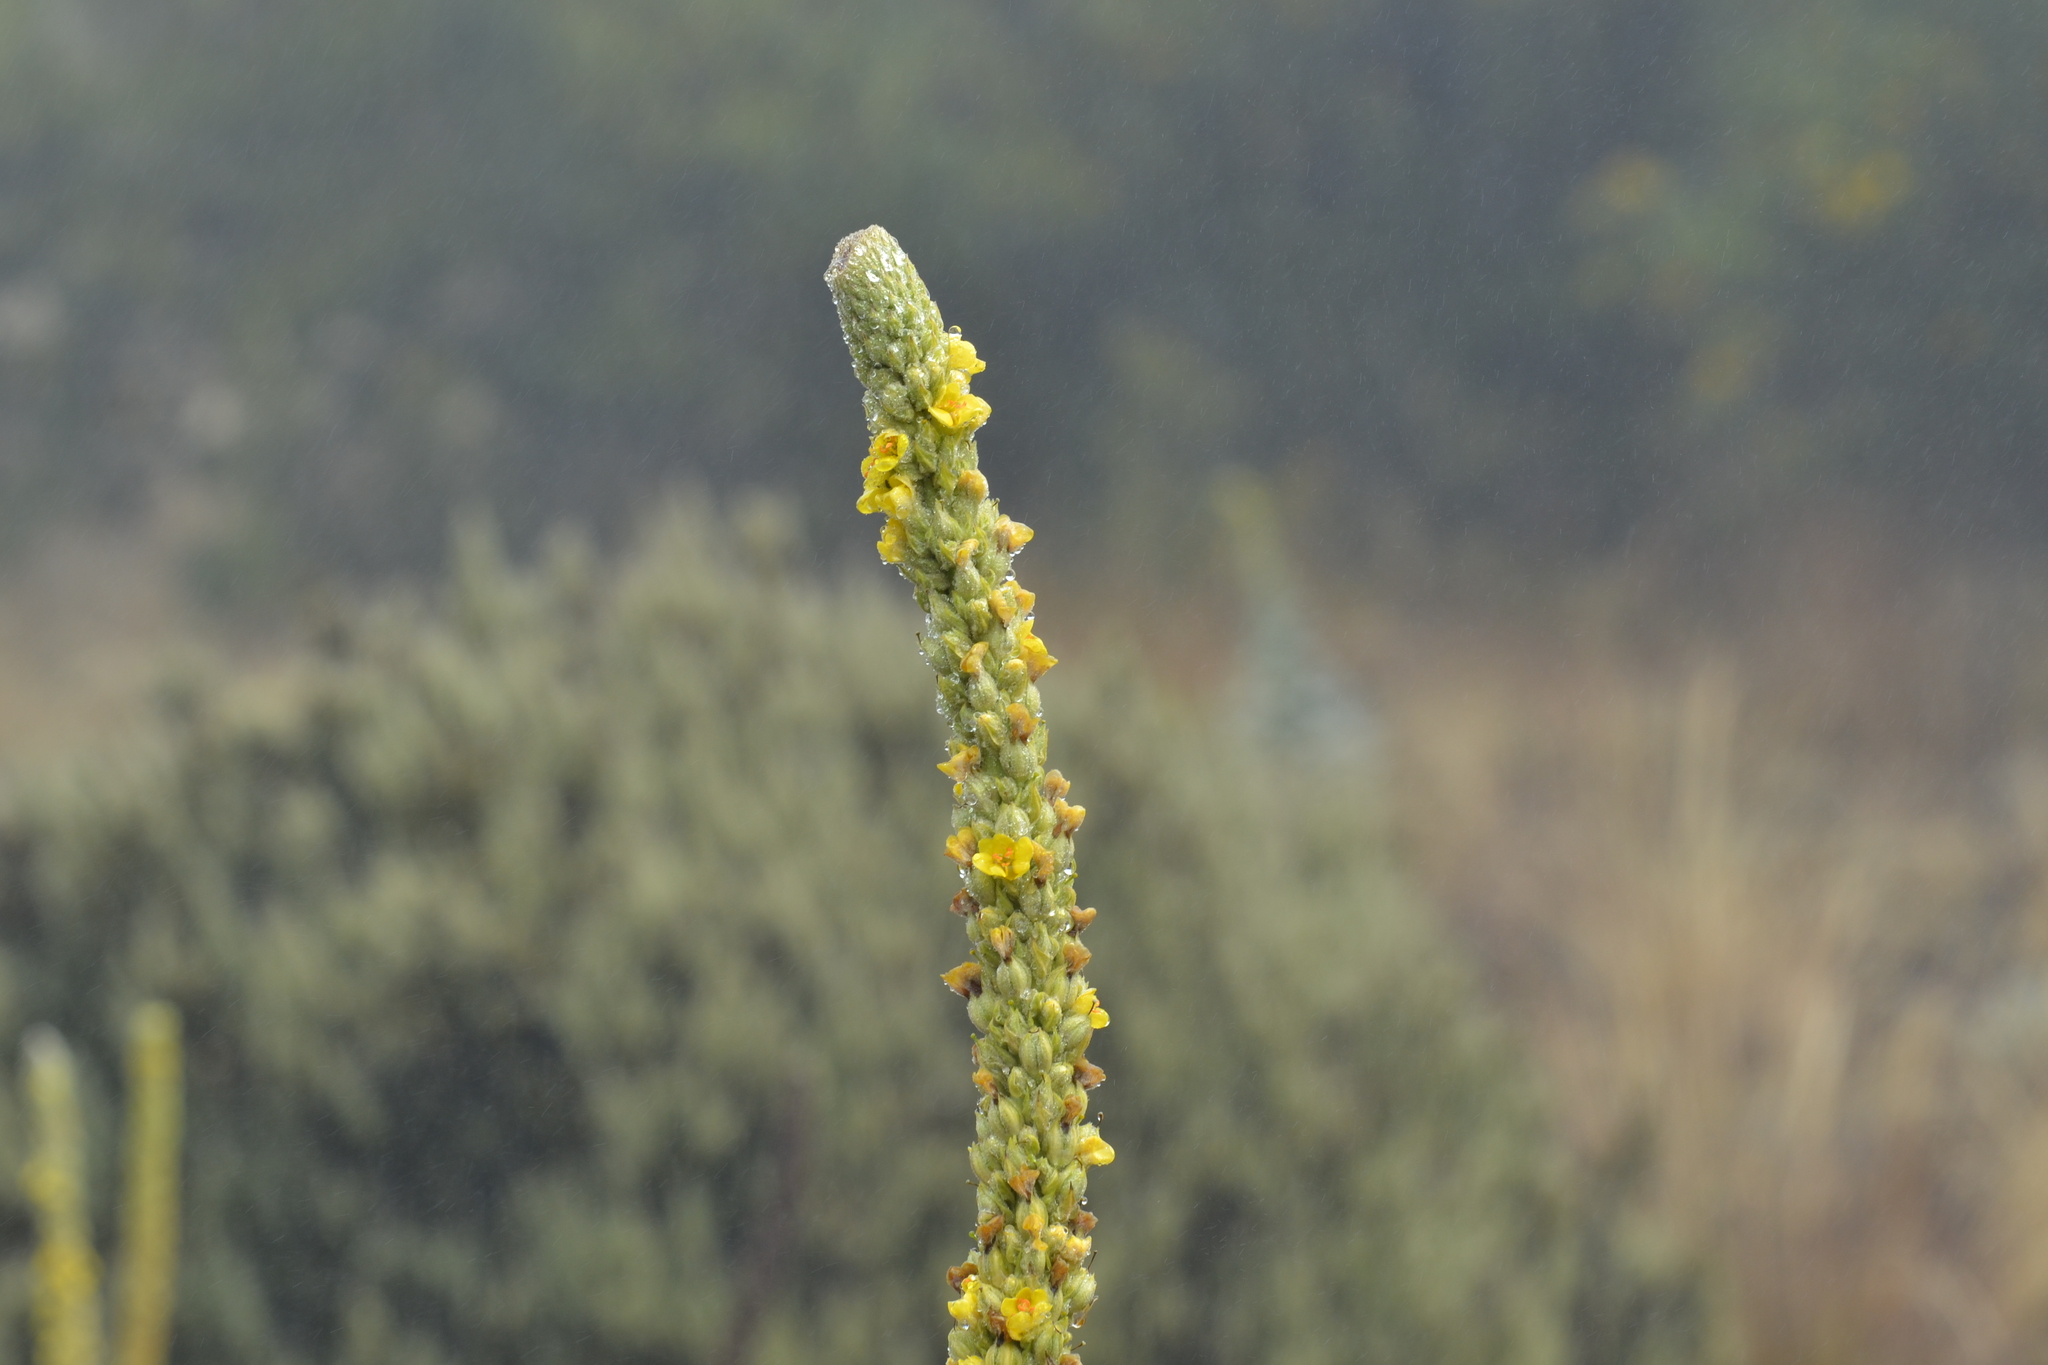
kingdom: Plantae
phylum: Tracheophyta
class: Magnoliopsida
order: Lamiales
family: Scrophulariaceae
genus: Verbascum
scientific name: Verbascum thapsus
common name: Common mullein
